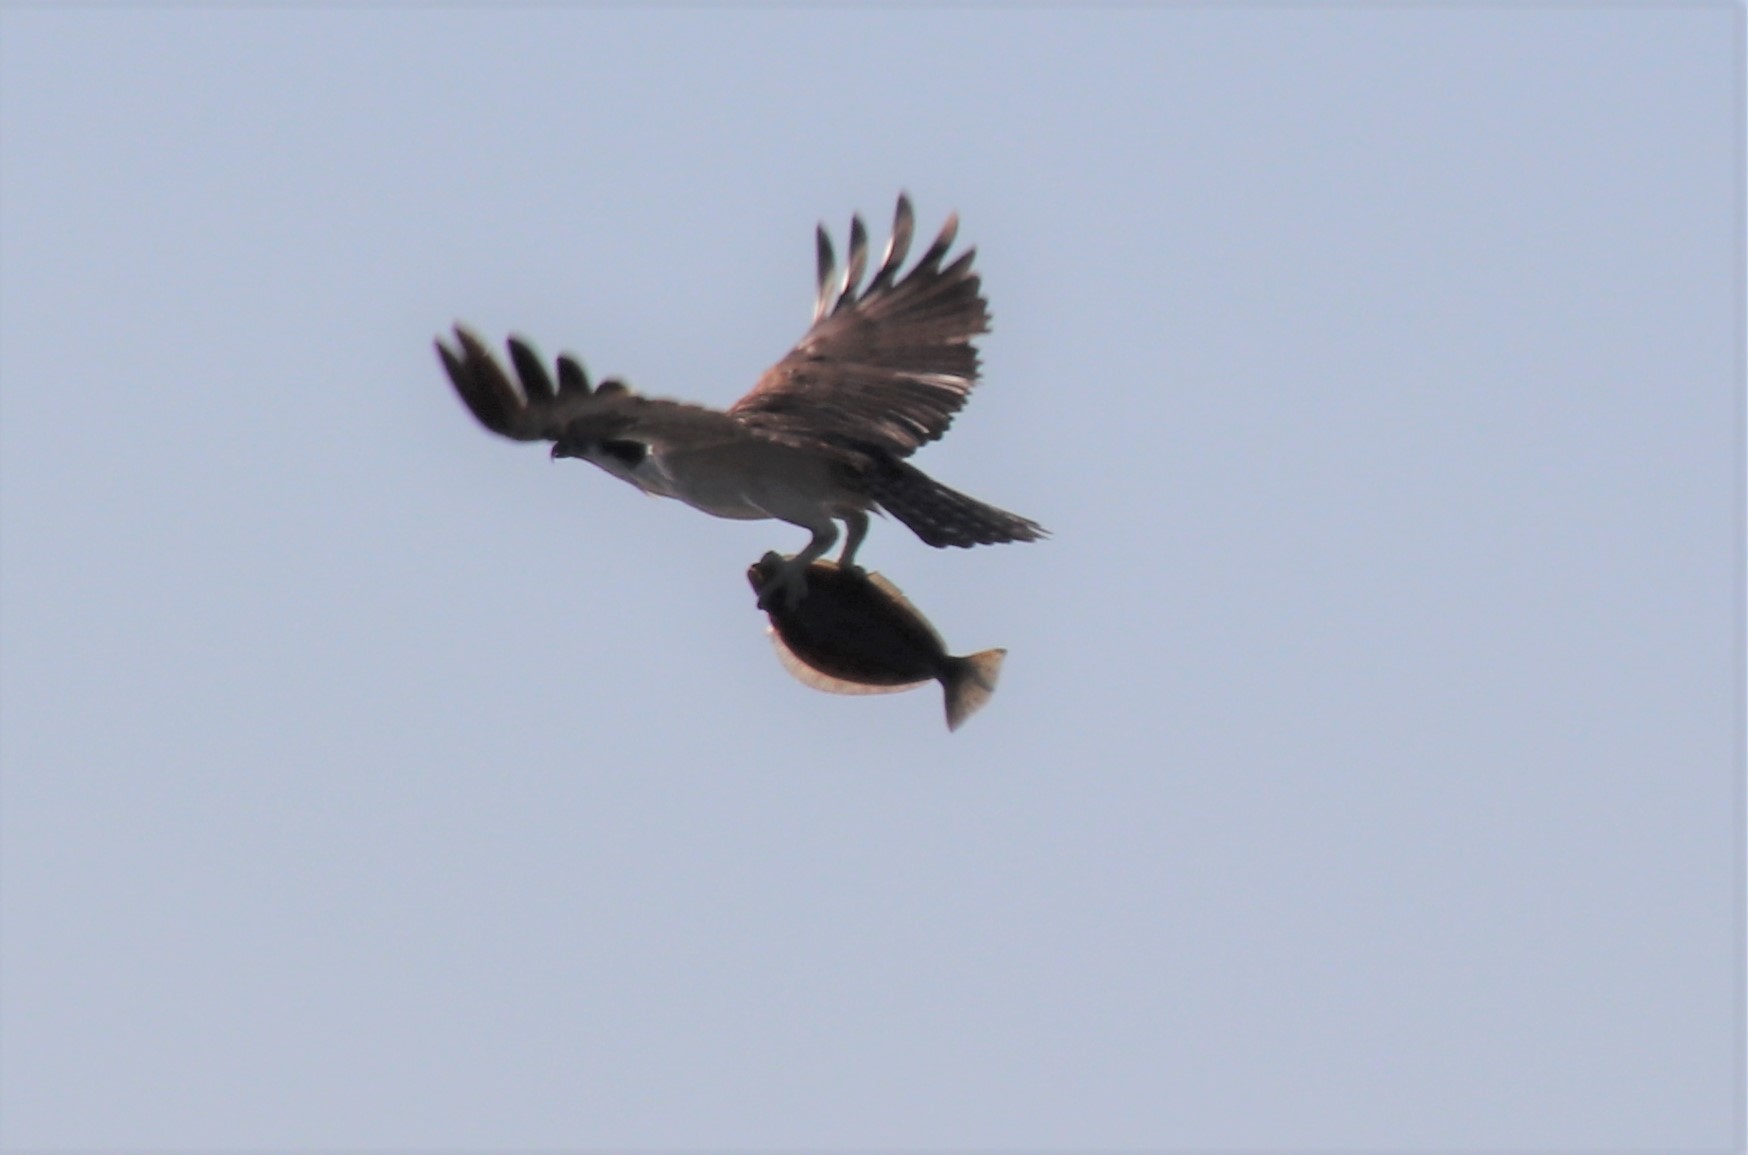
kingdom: Animalia
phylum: Chordata
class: Aves
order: Accipitriformes
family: Pandionidae
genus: Pandion
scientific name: Pandion haliaetus
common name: Osprey
